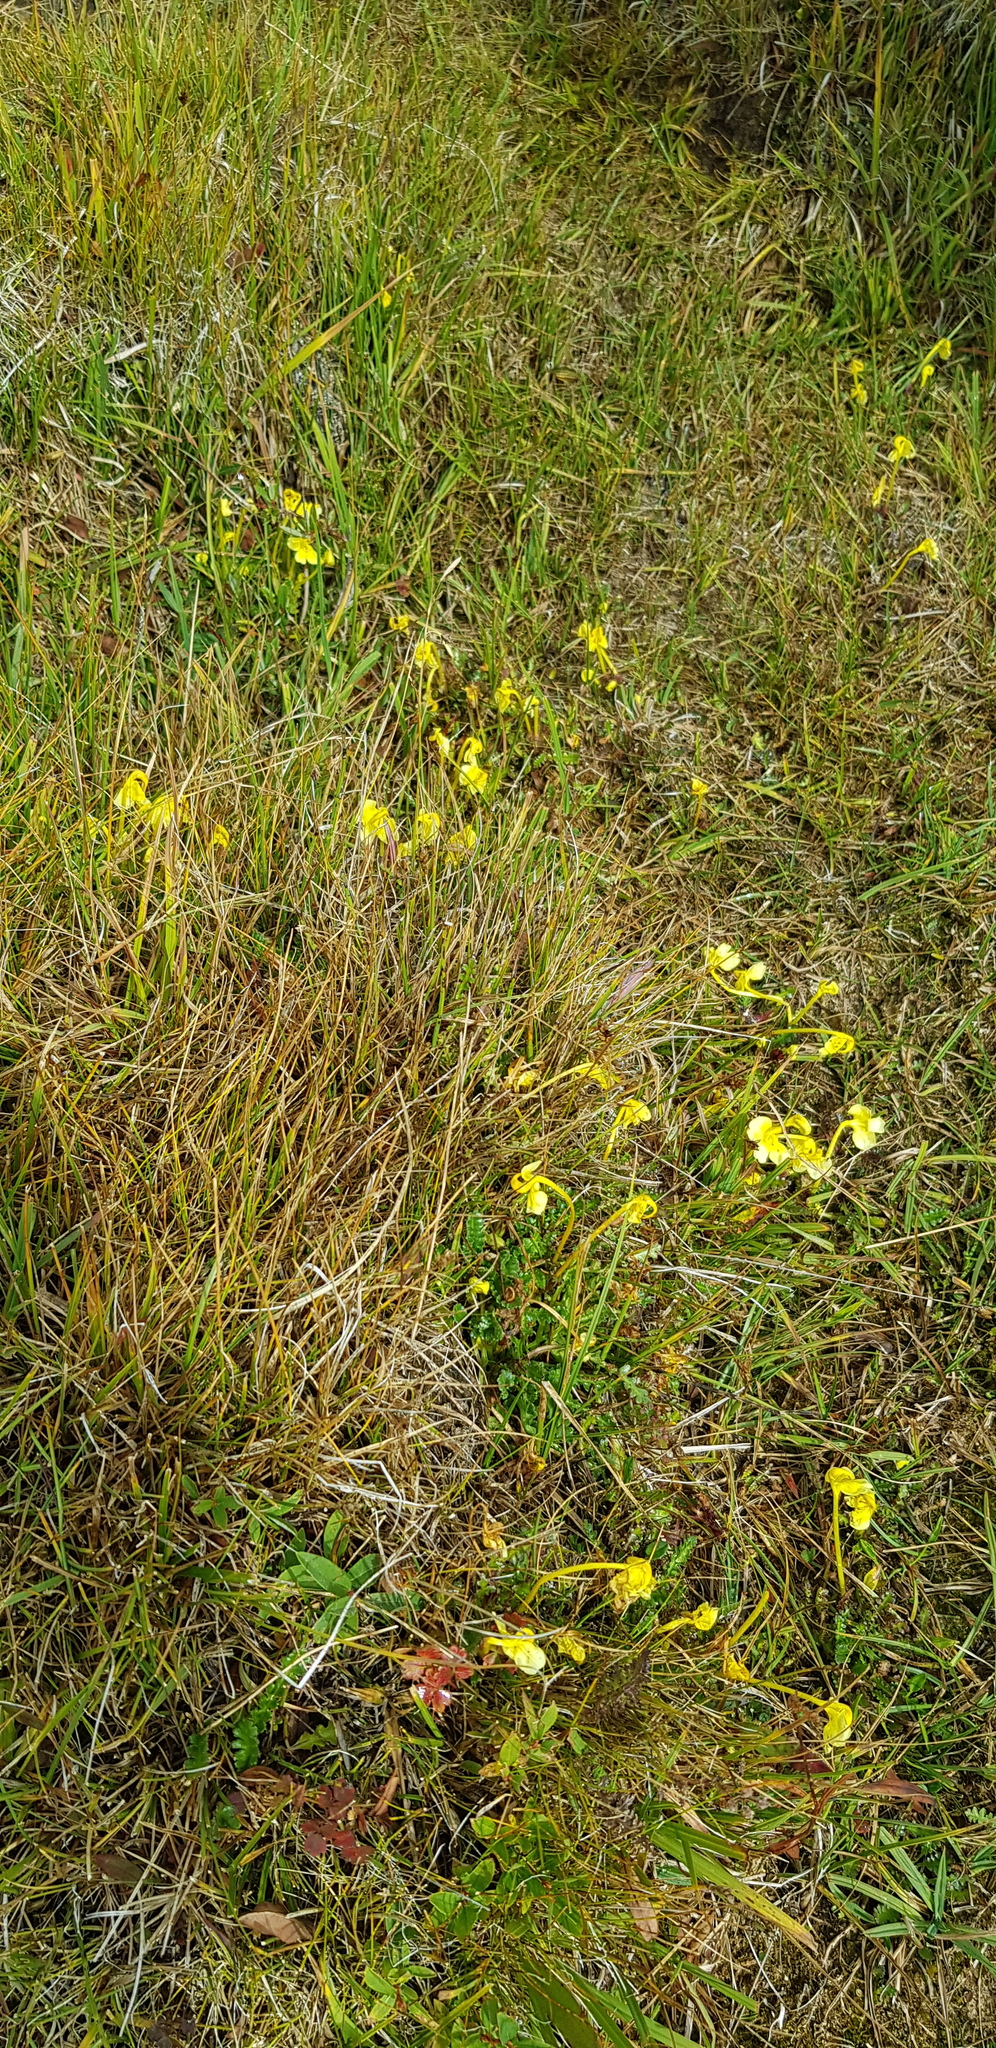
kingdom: Plantae
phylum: Tracheophyta
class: Magnoliopsida
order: Lamiales
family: Orobanchaceae
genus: Pedicularis
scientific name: Pedicularis longiflora
